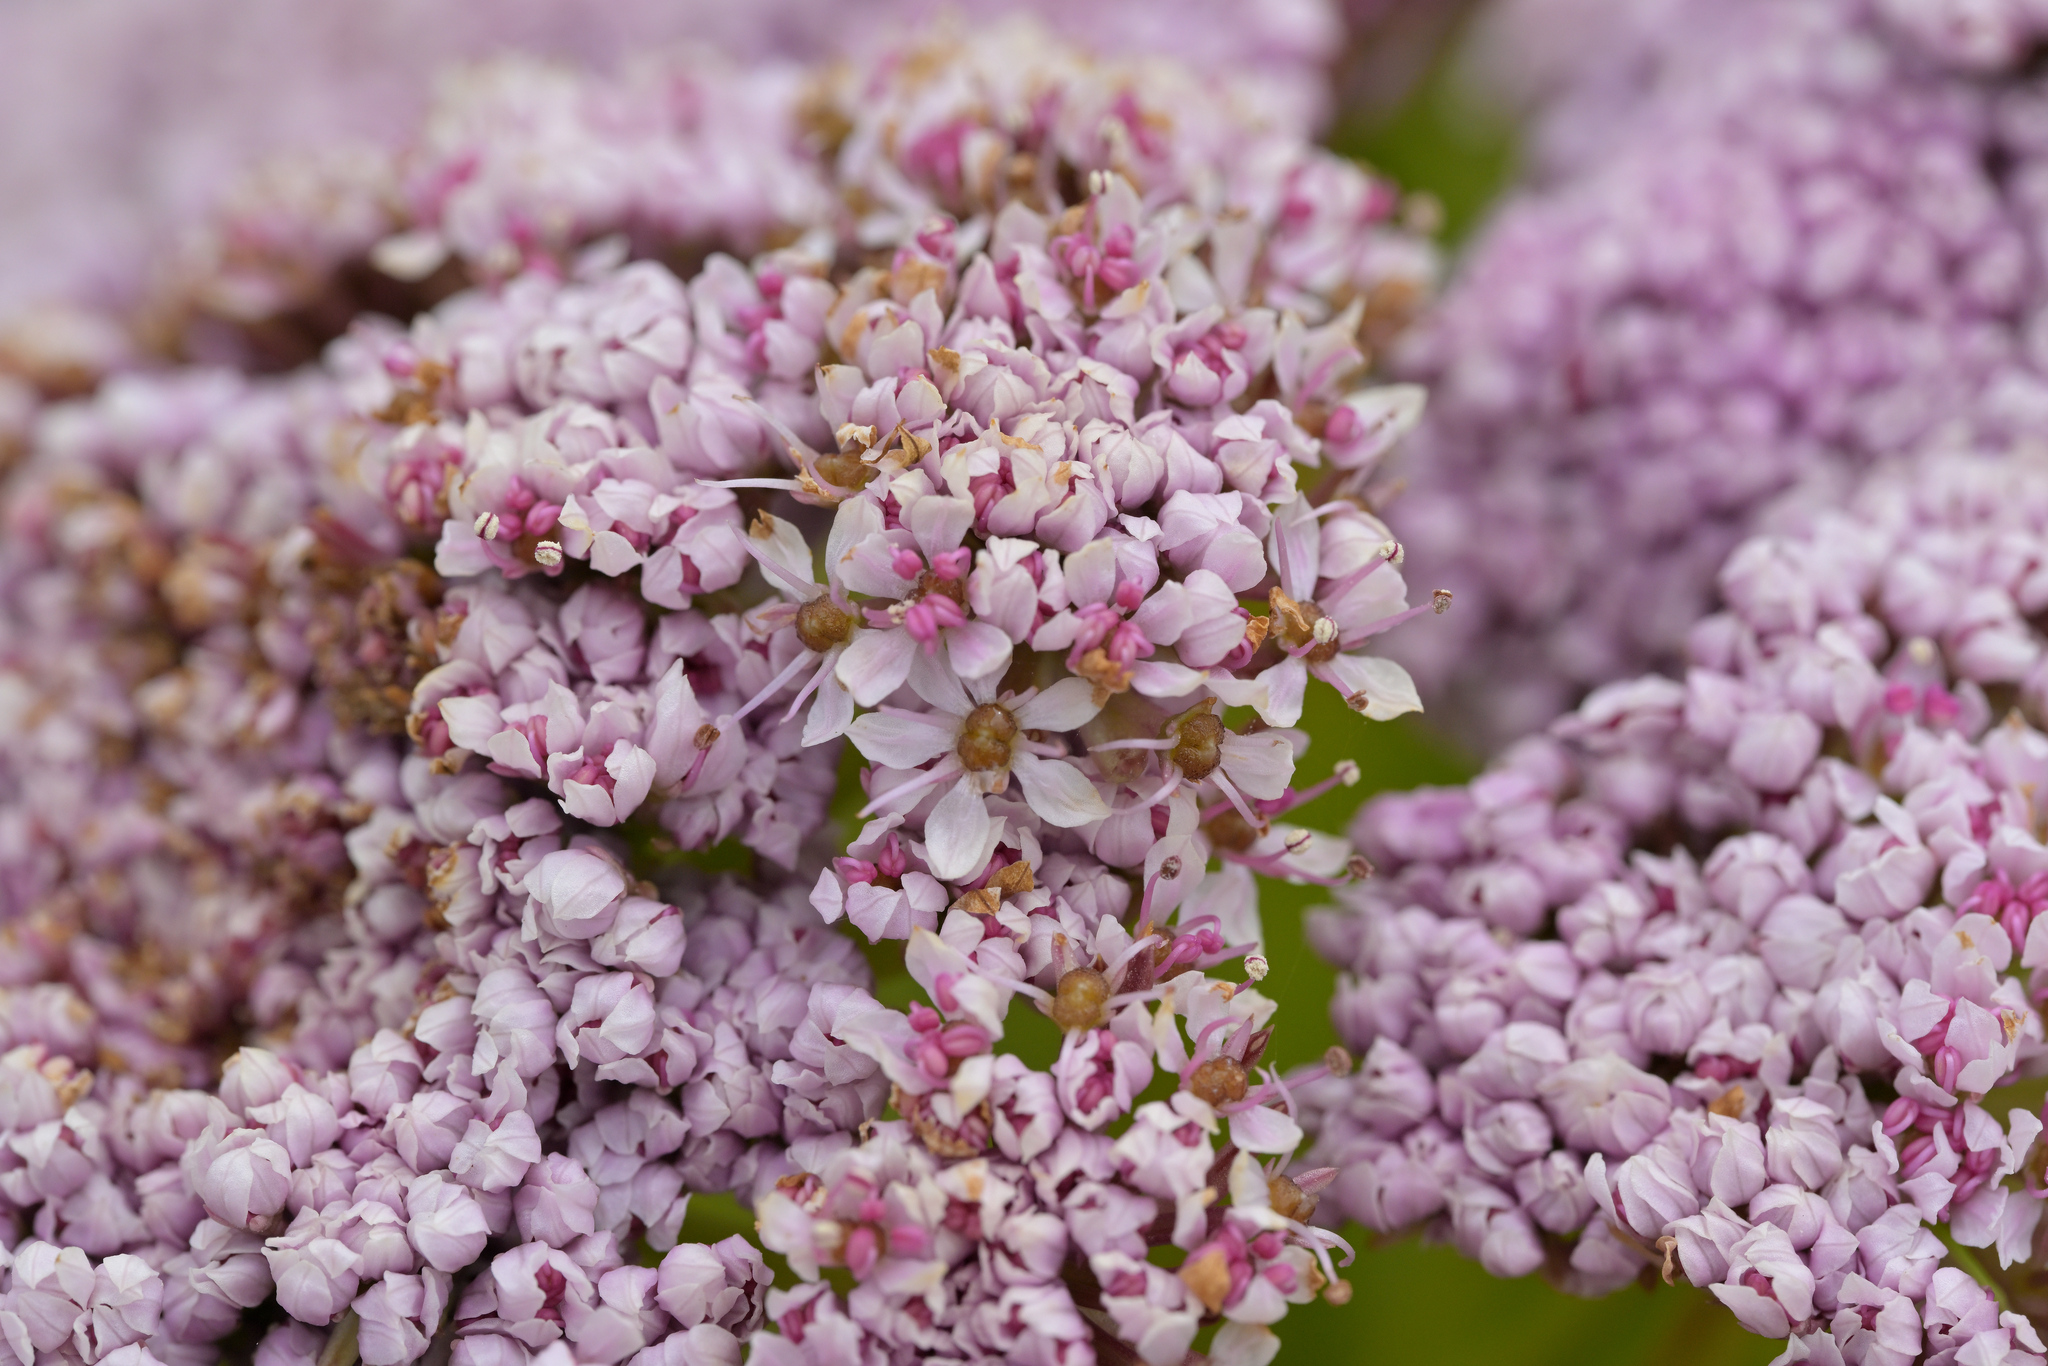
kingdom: Plantae
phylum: Tracheophyta
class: Magnoliopsida
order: Apiales
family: Apiaceae
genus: Anisotome
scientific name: Anisotome latifolia
